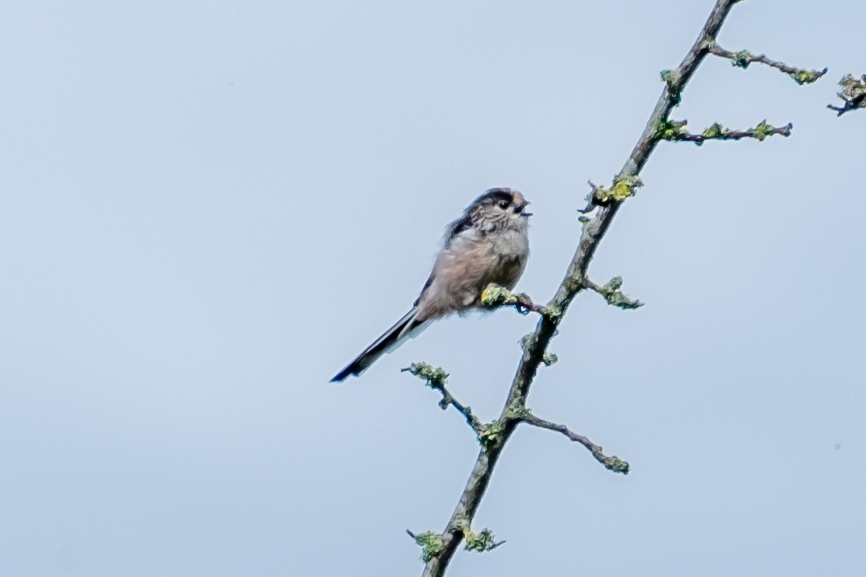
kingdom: Animalia
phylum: Chordata
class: Aves
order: Passeriformes
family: Aegithalidae
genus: Aegithalos
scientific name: Aegithalos caudatus
